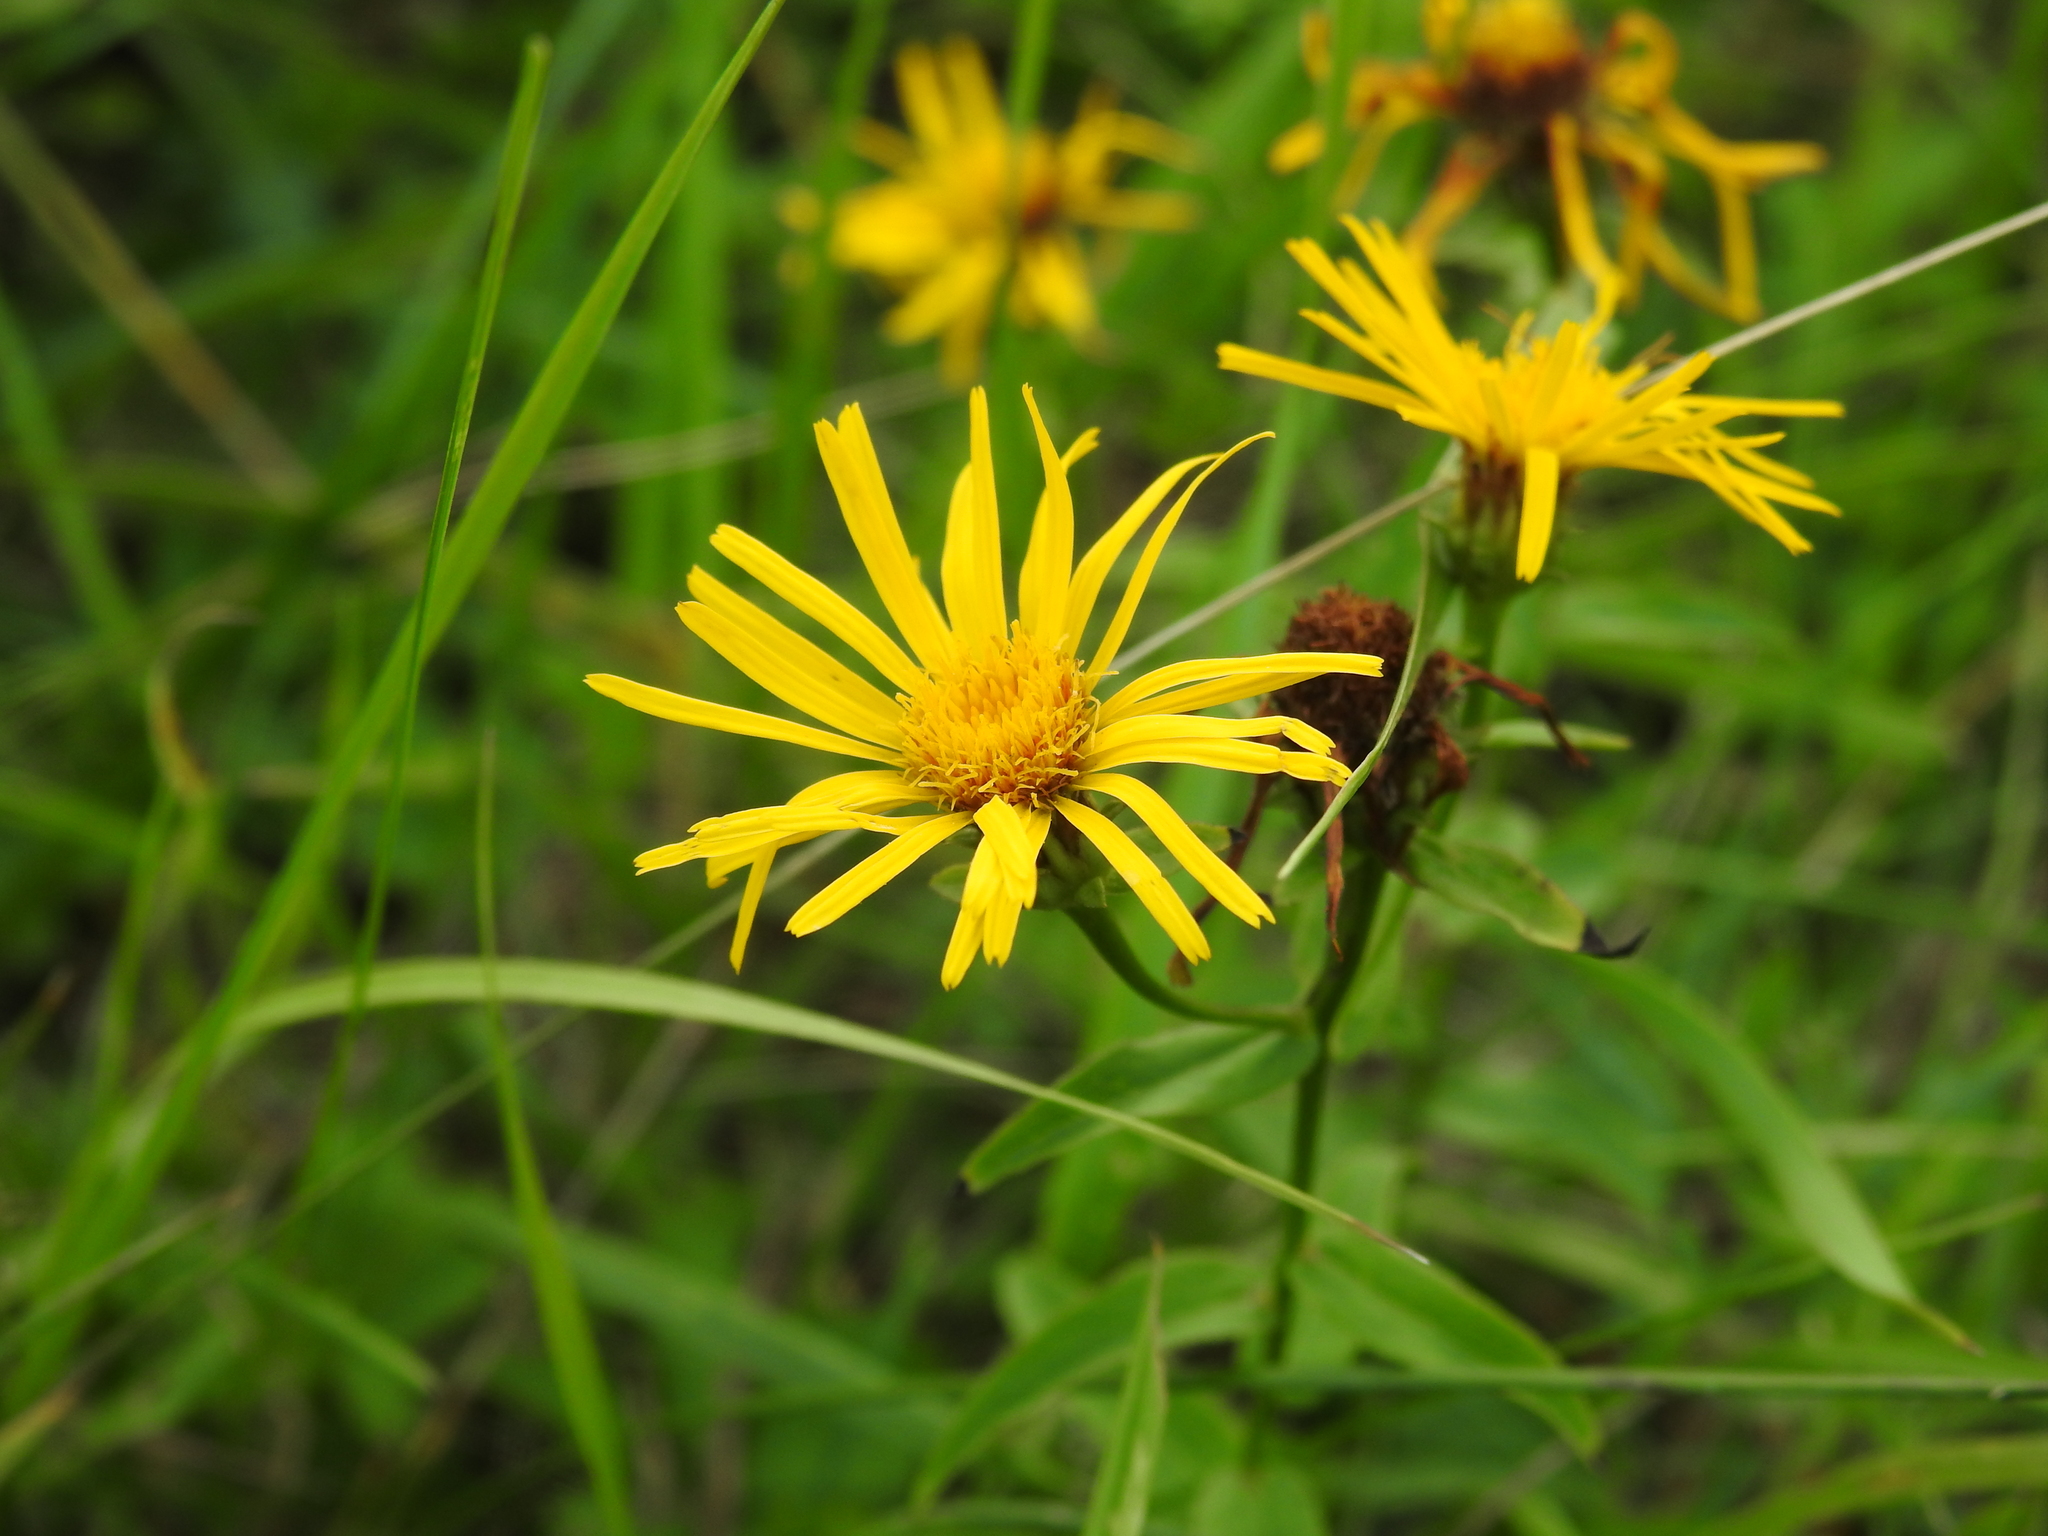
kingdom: Plantae
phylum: Tracheophyta
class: Magnoliopsida
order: Asterales
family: Asteraceae
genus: Pentanema
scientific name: Pentanema salicinum
